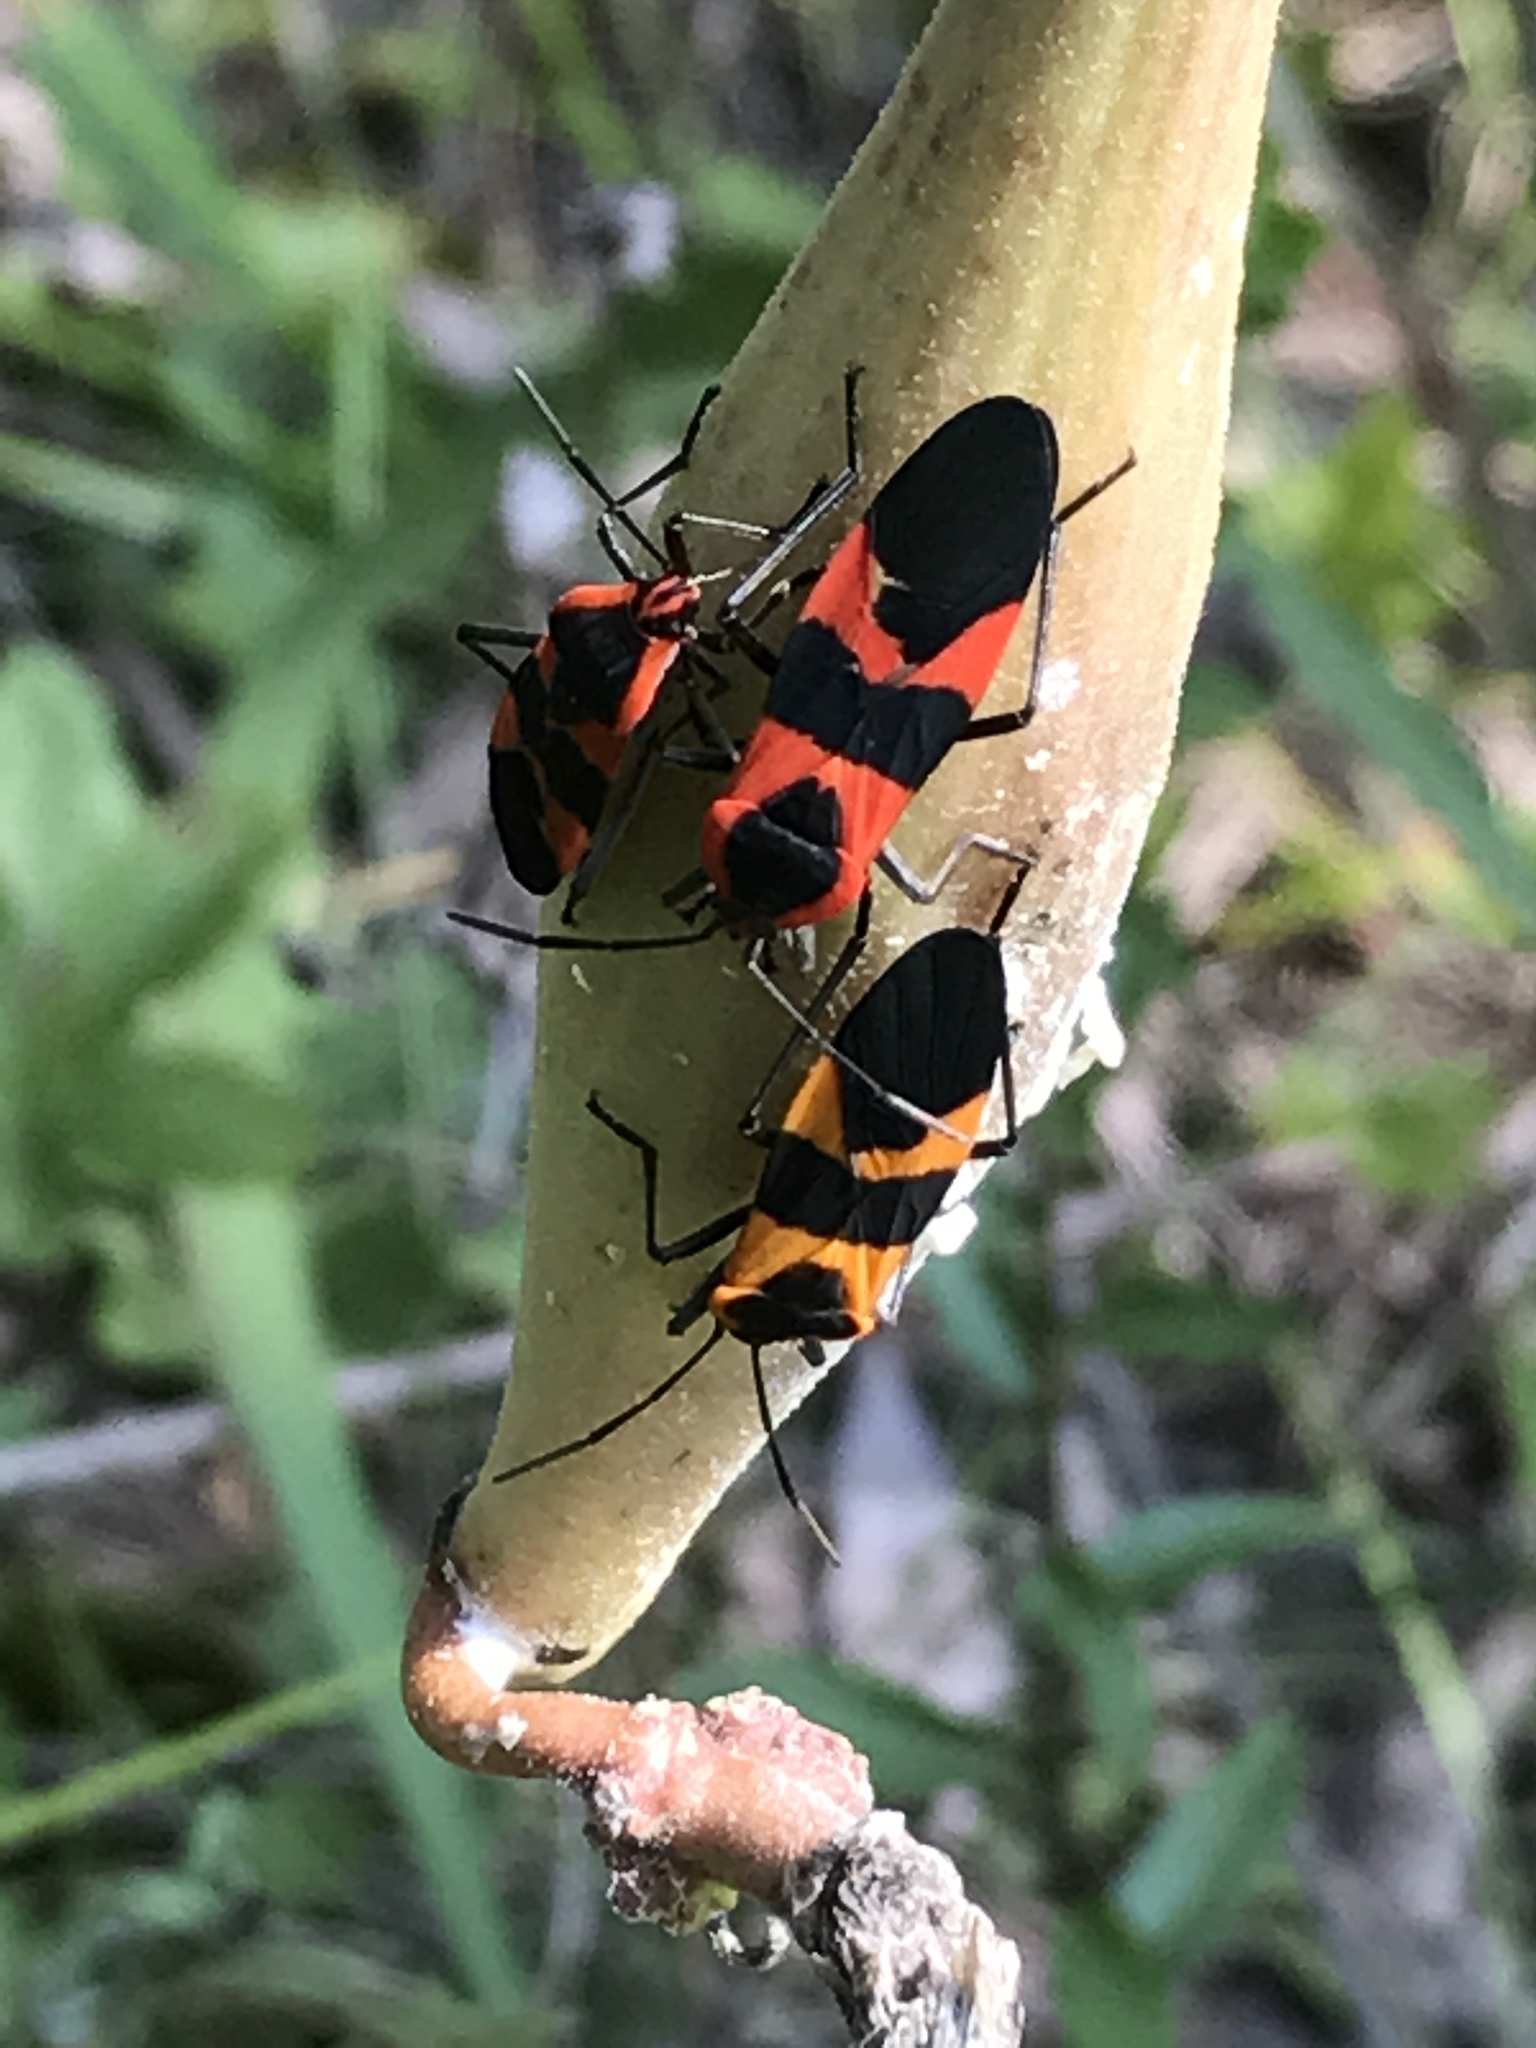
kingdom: Animalia
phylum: Arthropoda
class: Insecta
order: Hemiptera
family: Lygaeidae
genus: Oncopeltus
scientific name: Oncopeltus fasciatus
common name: Large milkweed bug
